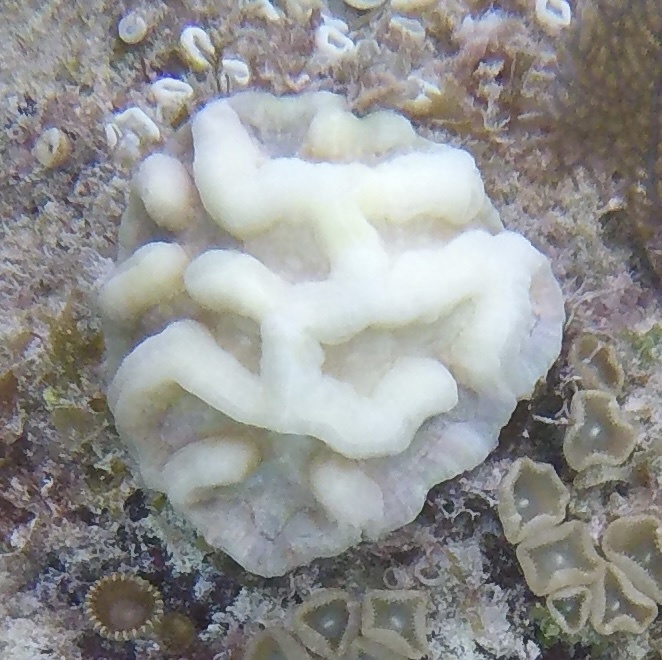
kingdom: Animalia
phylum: Cnidaria
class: Anthozoa
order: Scleractinia
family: Faviidae
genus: Isophyllia
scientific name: Isophyllia sinuosa
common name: Sinuous cactus coral
